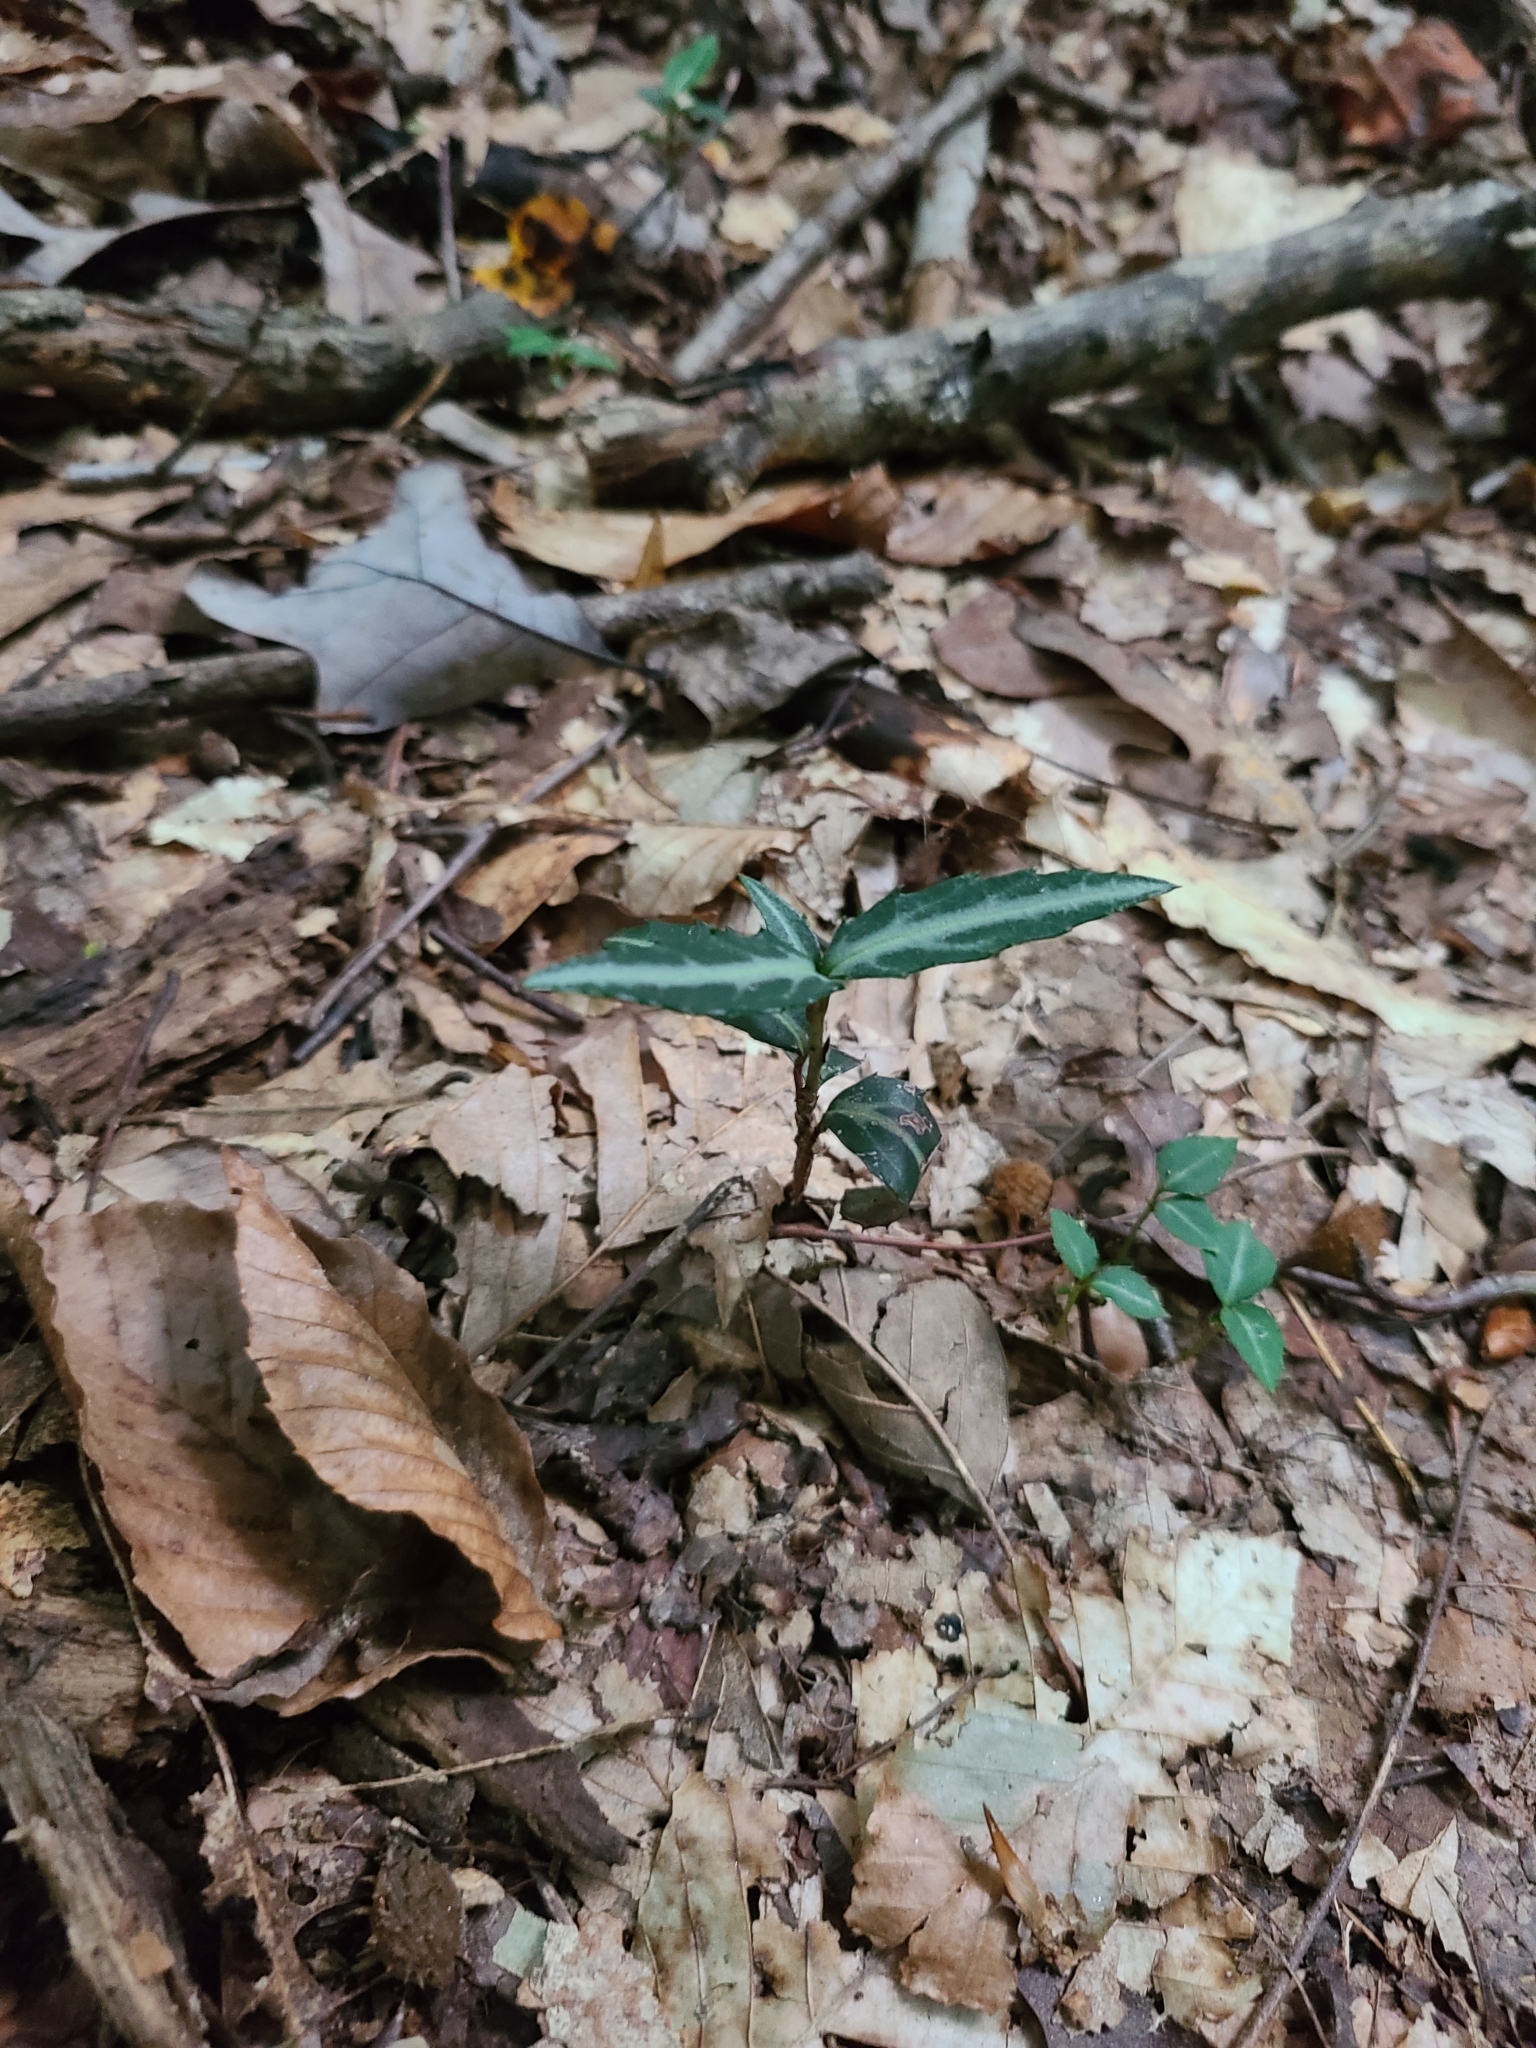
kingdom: Plantae
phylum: Tracheophyta
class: Magnoliopsida
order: Ericales
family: Ericaceae
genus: Chimaphila
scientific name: Chimaphila maculata
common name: Spotted pipsissewa
